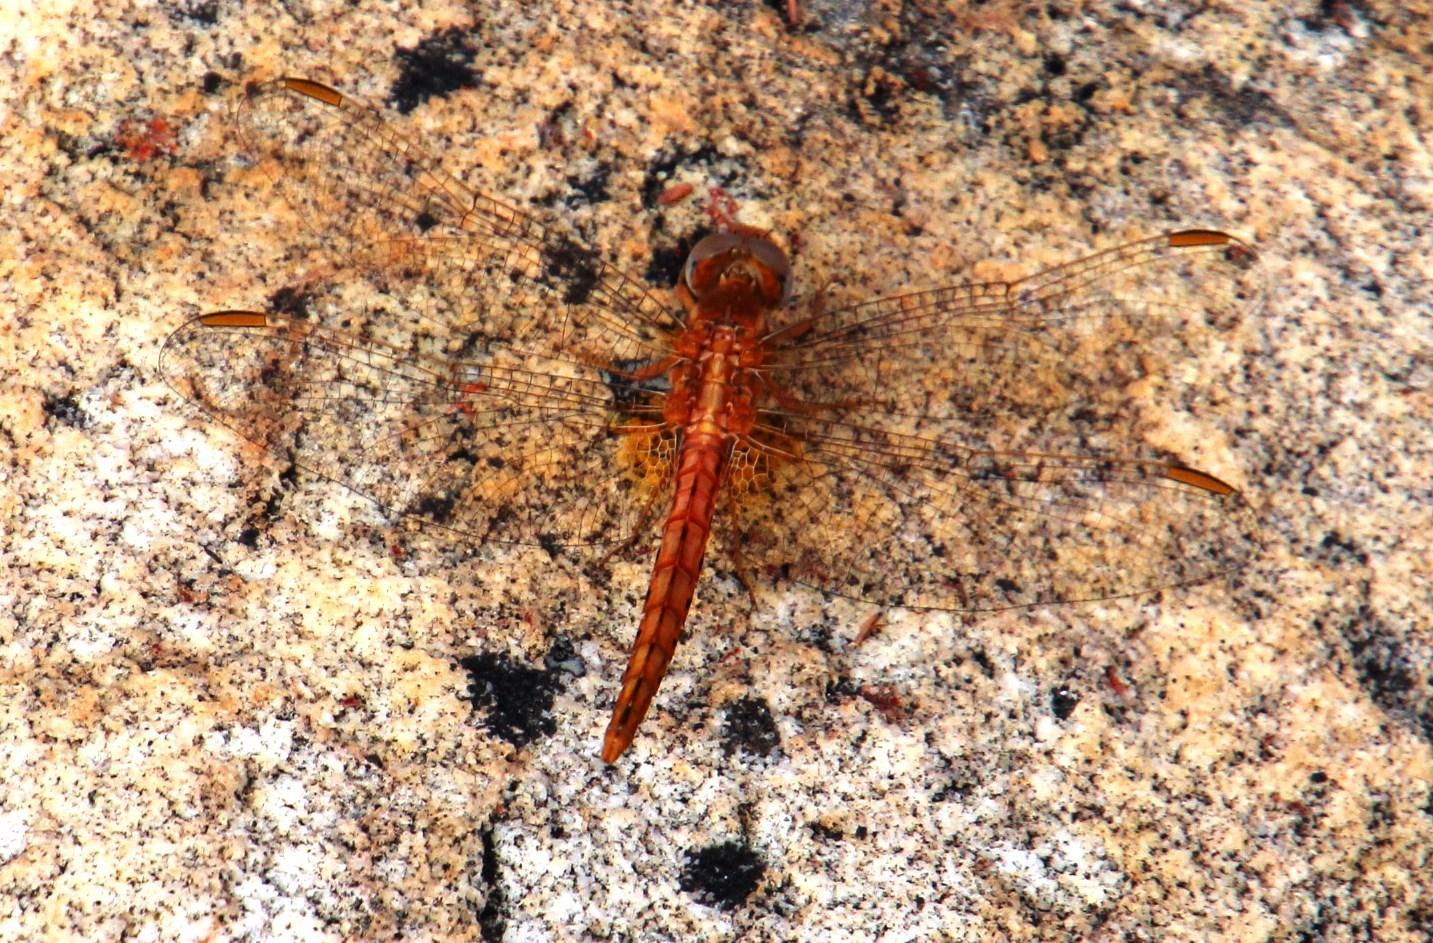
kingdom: Animalia
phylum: Arthropoda
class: Insecta
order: Odonata
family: Libellulidae
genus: Crocothemis
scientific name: Crocothemis sanguinolenta
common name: Little scarlet
